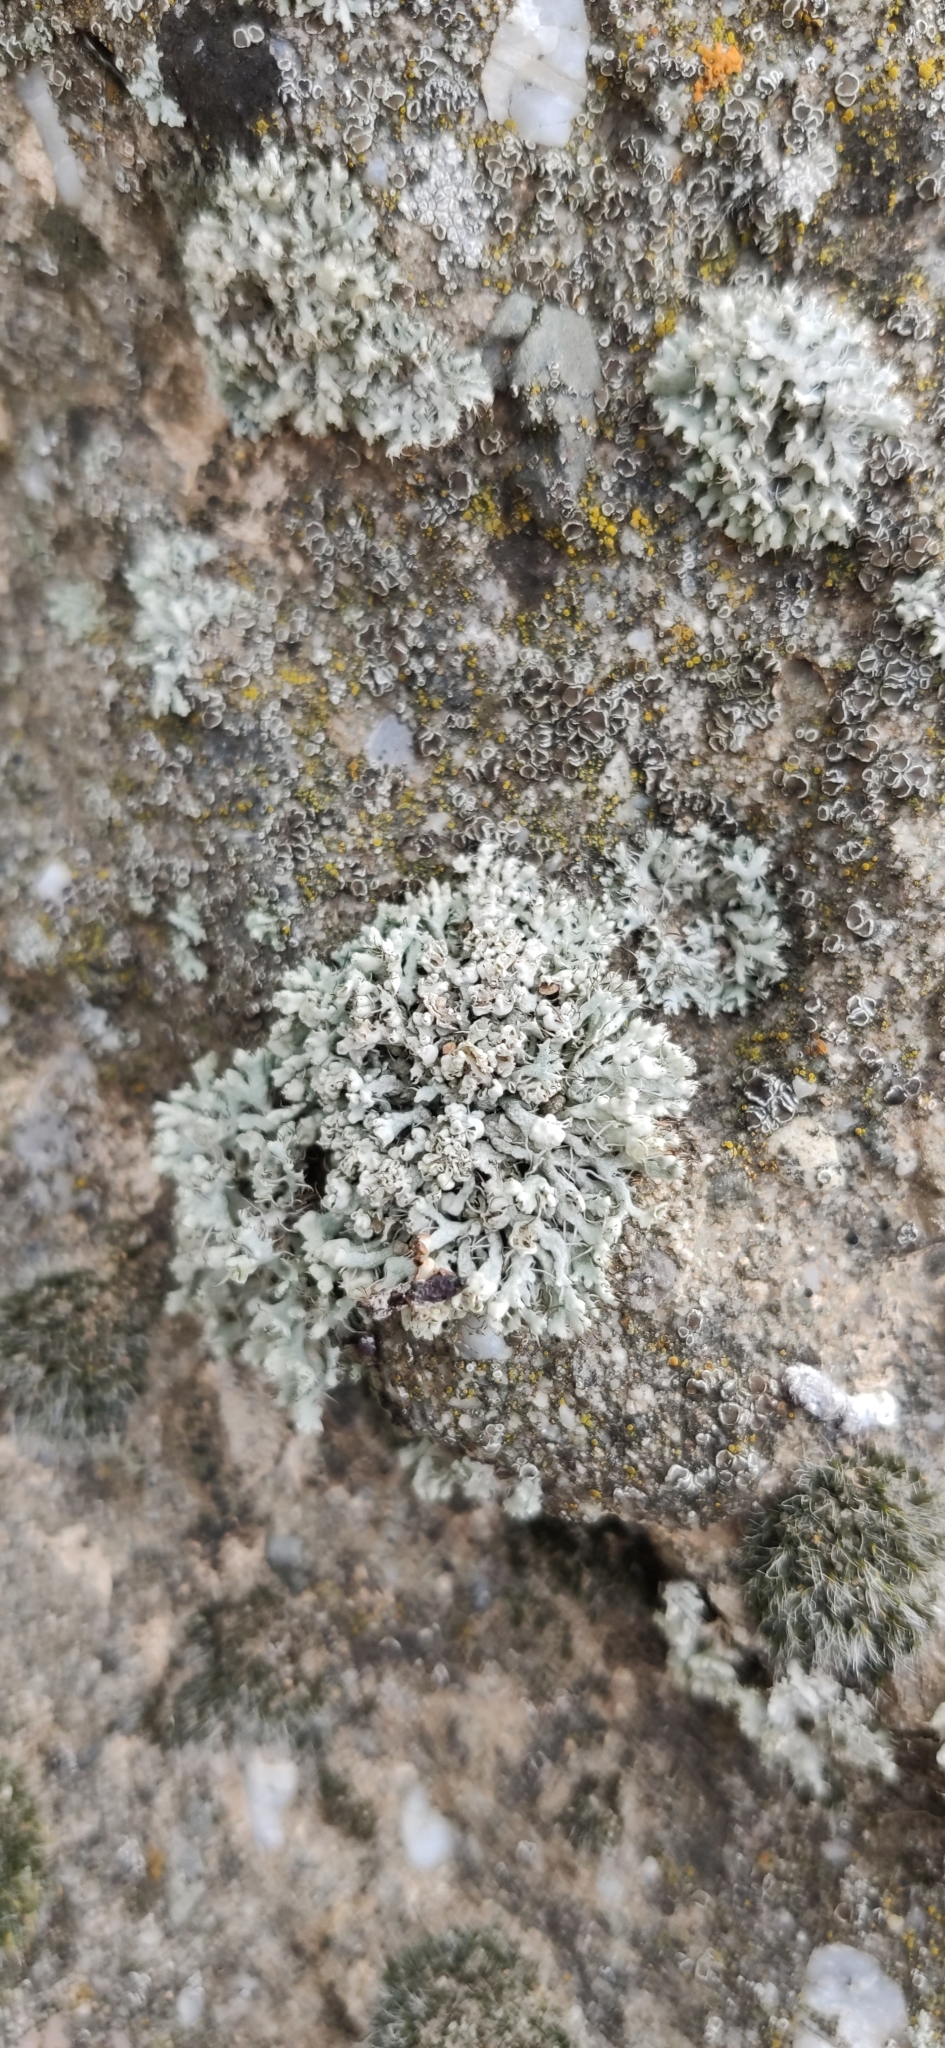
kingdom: Fungi
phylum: Ascomycota
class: Lecanoromycetes
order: Caliciales
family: Physciaceae
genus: Physcia
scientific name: Physcia adscendens
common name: Hooded rosette lichen
